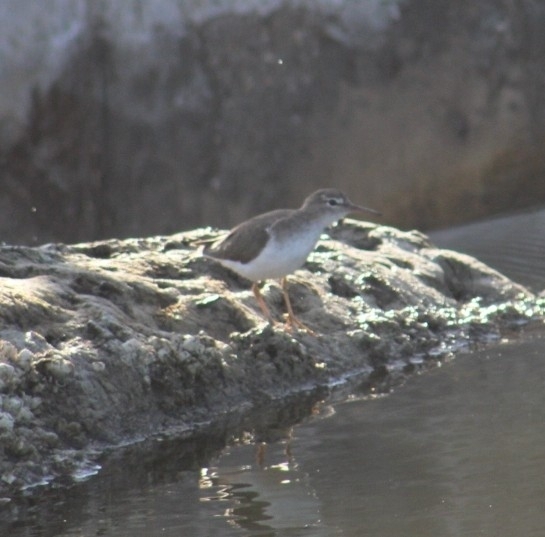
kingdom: Animalia
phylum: Chordata
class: Aves
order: Charadriiformes
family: Scolopacidae
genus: Actitis
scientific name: Actitis macularius
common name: Spotted sandpiper
